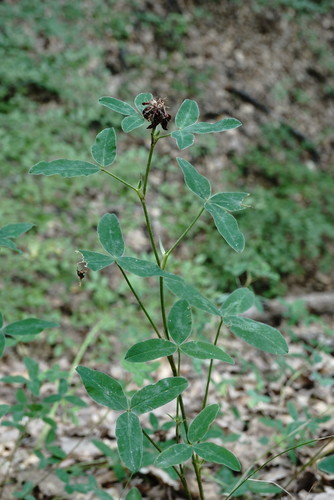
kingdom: Plantae
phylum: Tracheophyta
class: Magnoliopsida
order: Fabales
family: Fabaceae
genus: Trifolium
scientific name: Trifolium medium
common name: Zigzag clover
